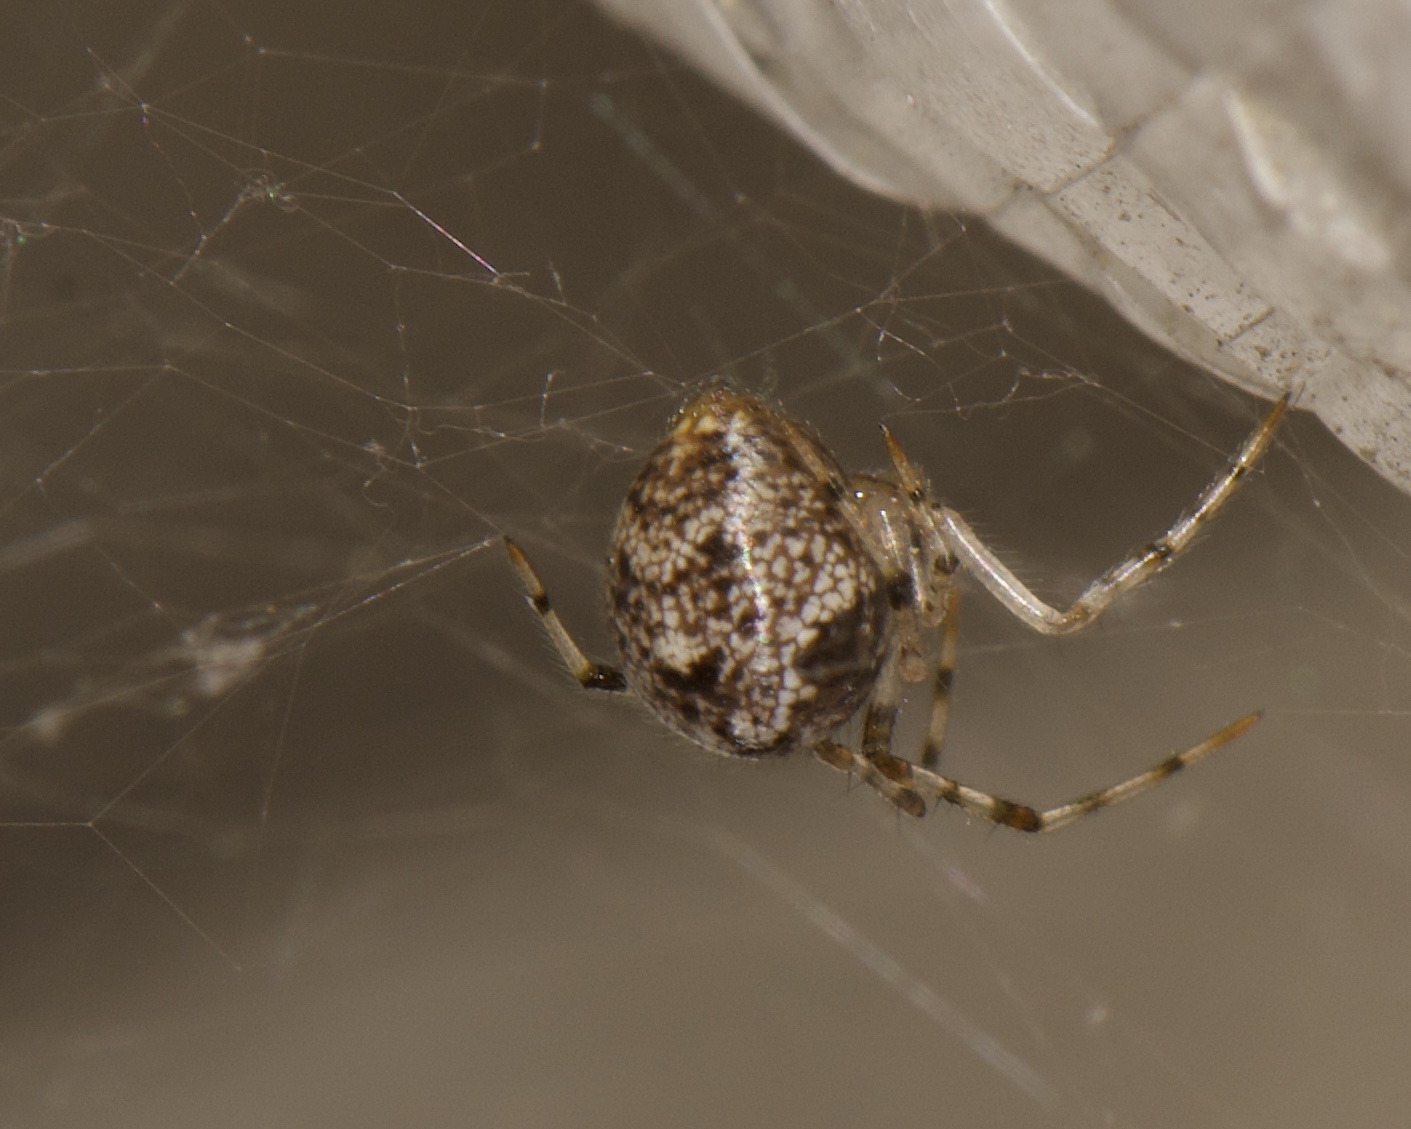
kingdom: Animalia
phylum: Arthropoda
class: Arachnida
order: Araneae
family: Theridiidae
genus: Parasteatoda
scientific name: Parasteatoda tepidariorum
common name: Common house spider
